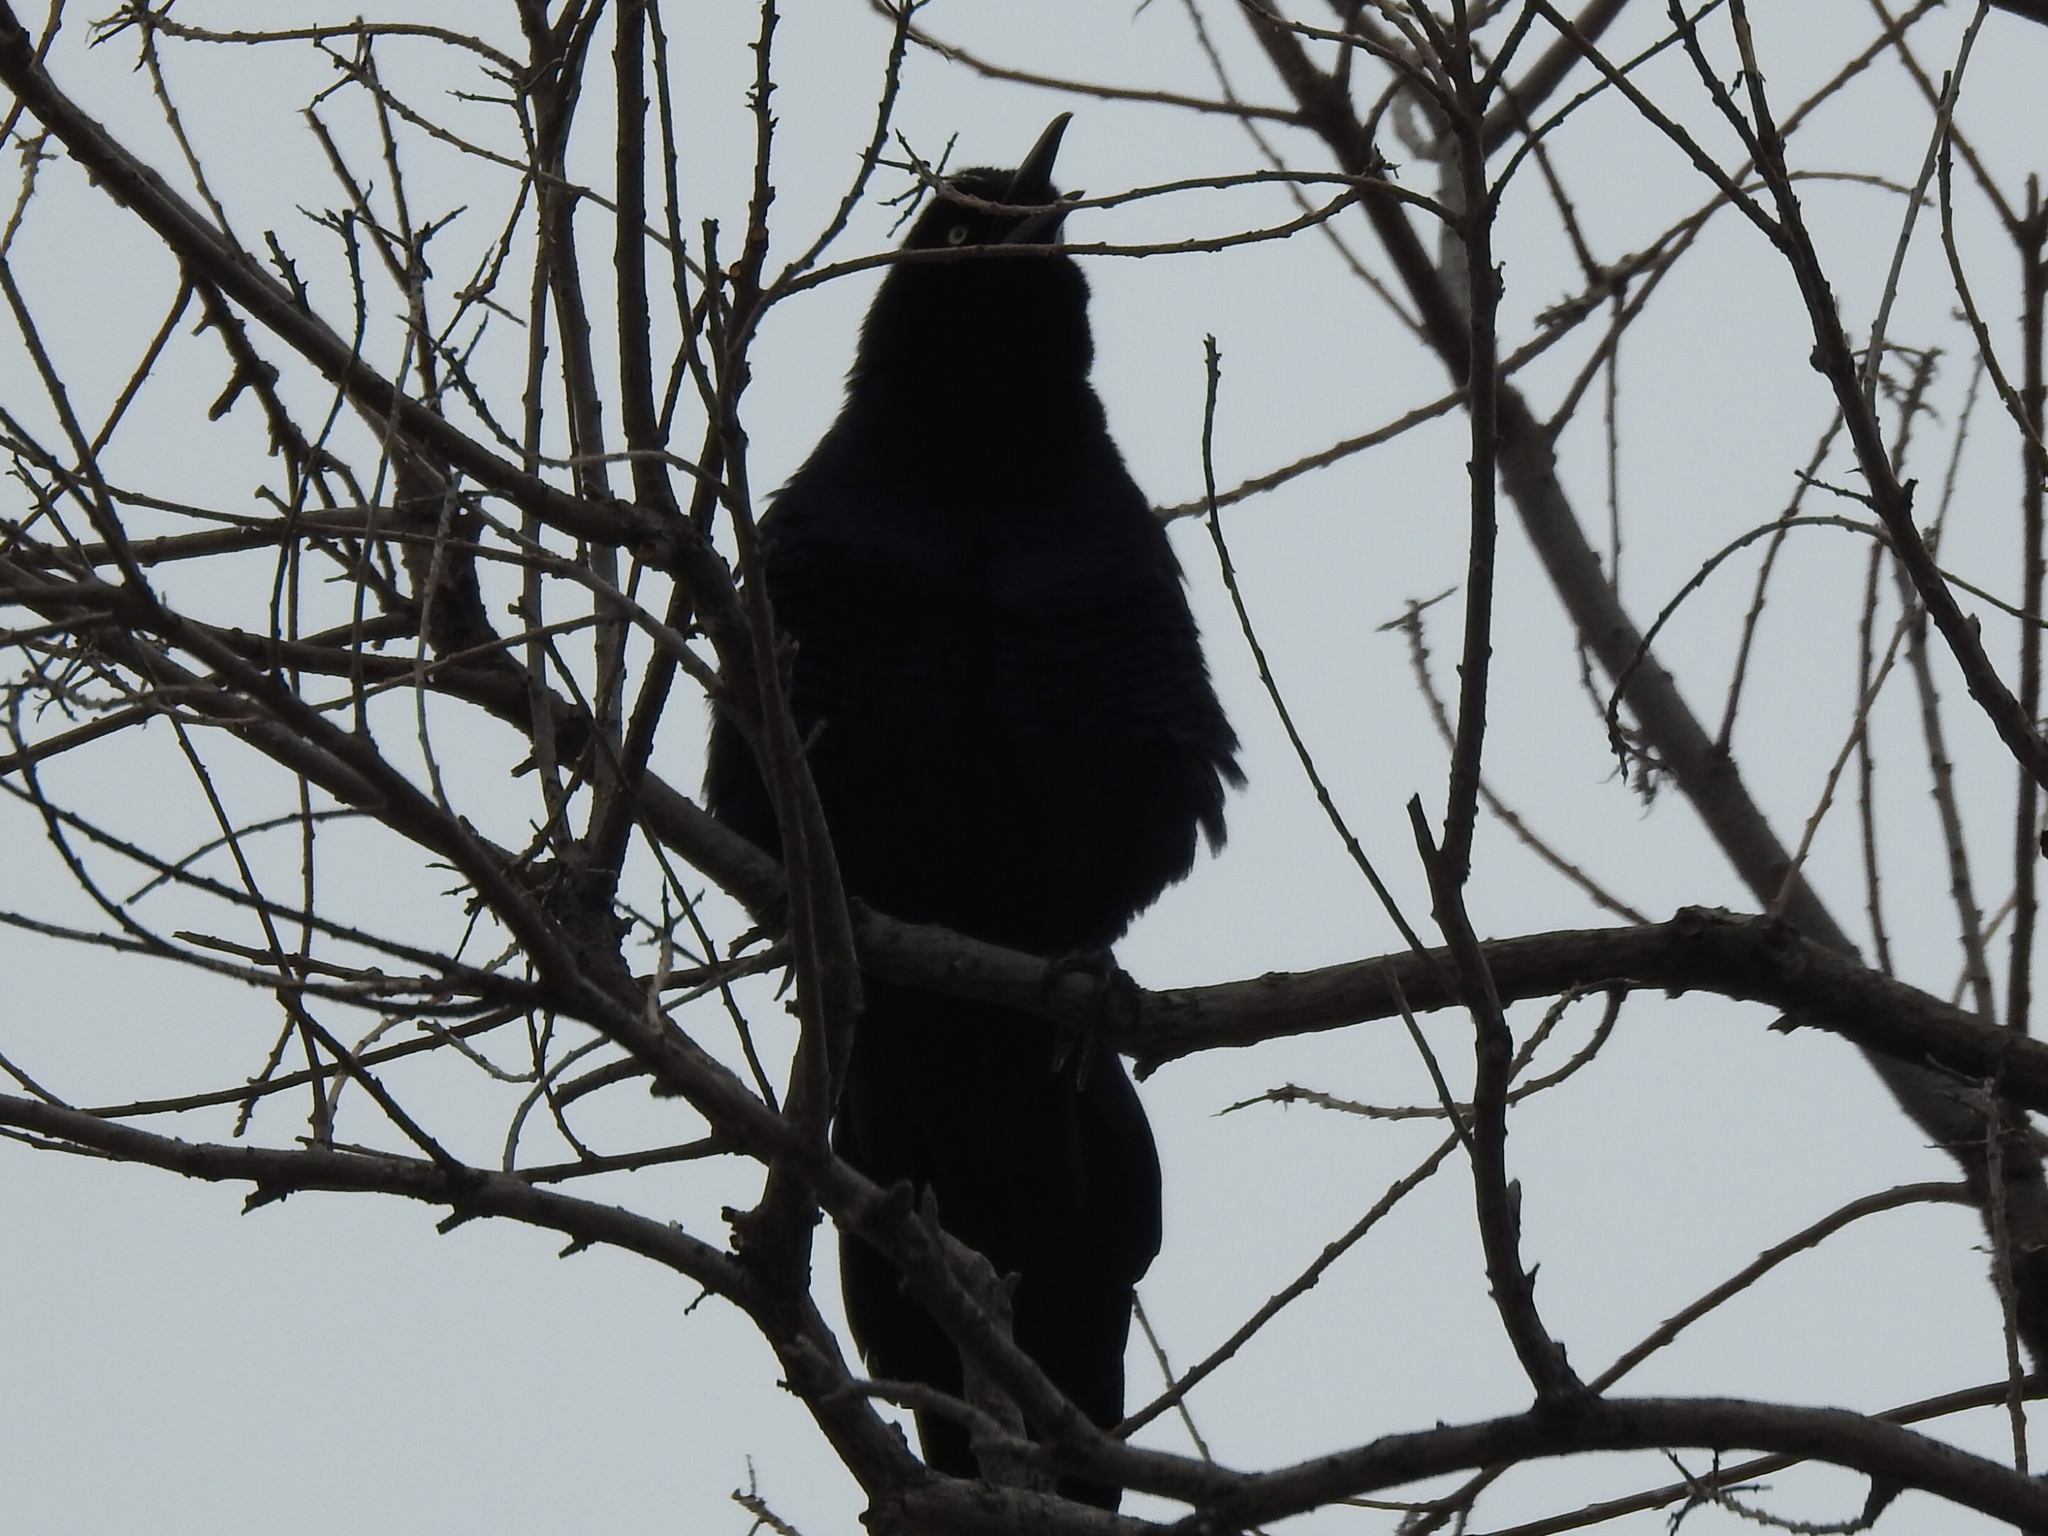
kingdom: Animalia
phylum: Chordata
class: Aves
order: Passeriformes
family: Icteridae
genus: Quiscalus
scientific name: Quiscalus mexicanus
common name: Great-tailed grackle
